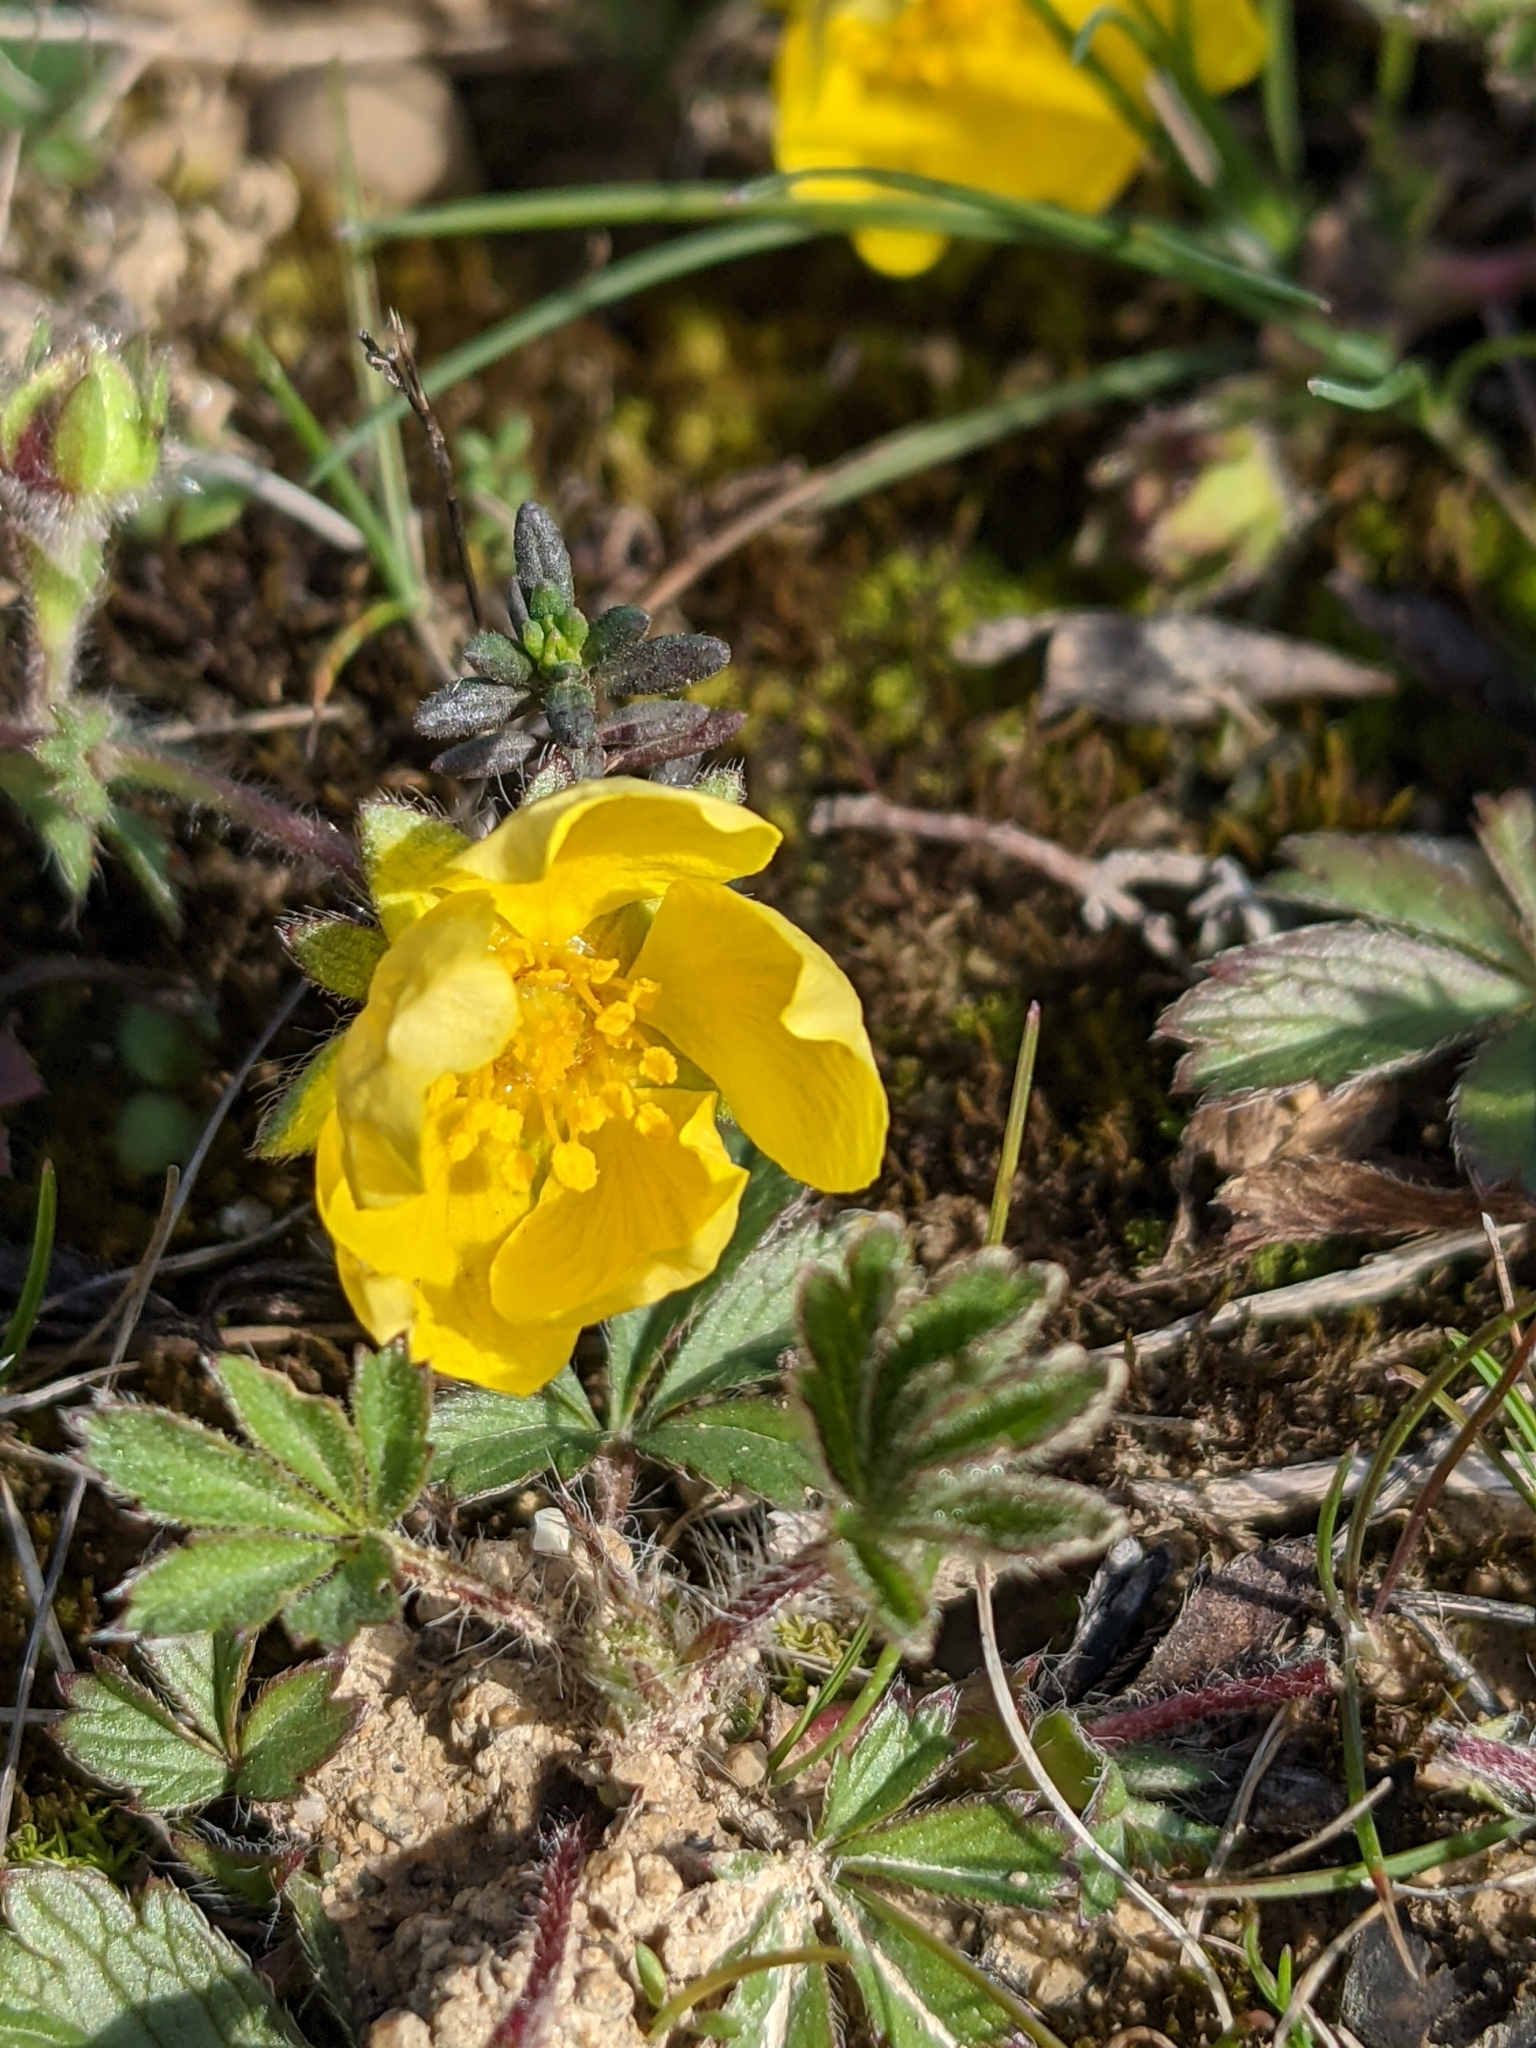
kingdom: Plantae
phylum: Tracheophyta
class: Magnoliopsida
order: Rosales
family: Rosaceae
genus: Potentilla
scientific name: Potentilla verna
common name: Spring cinquefoil
